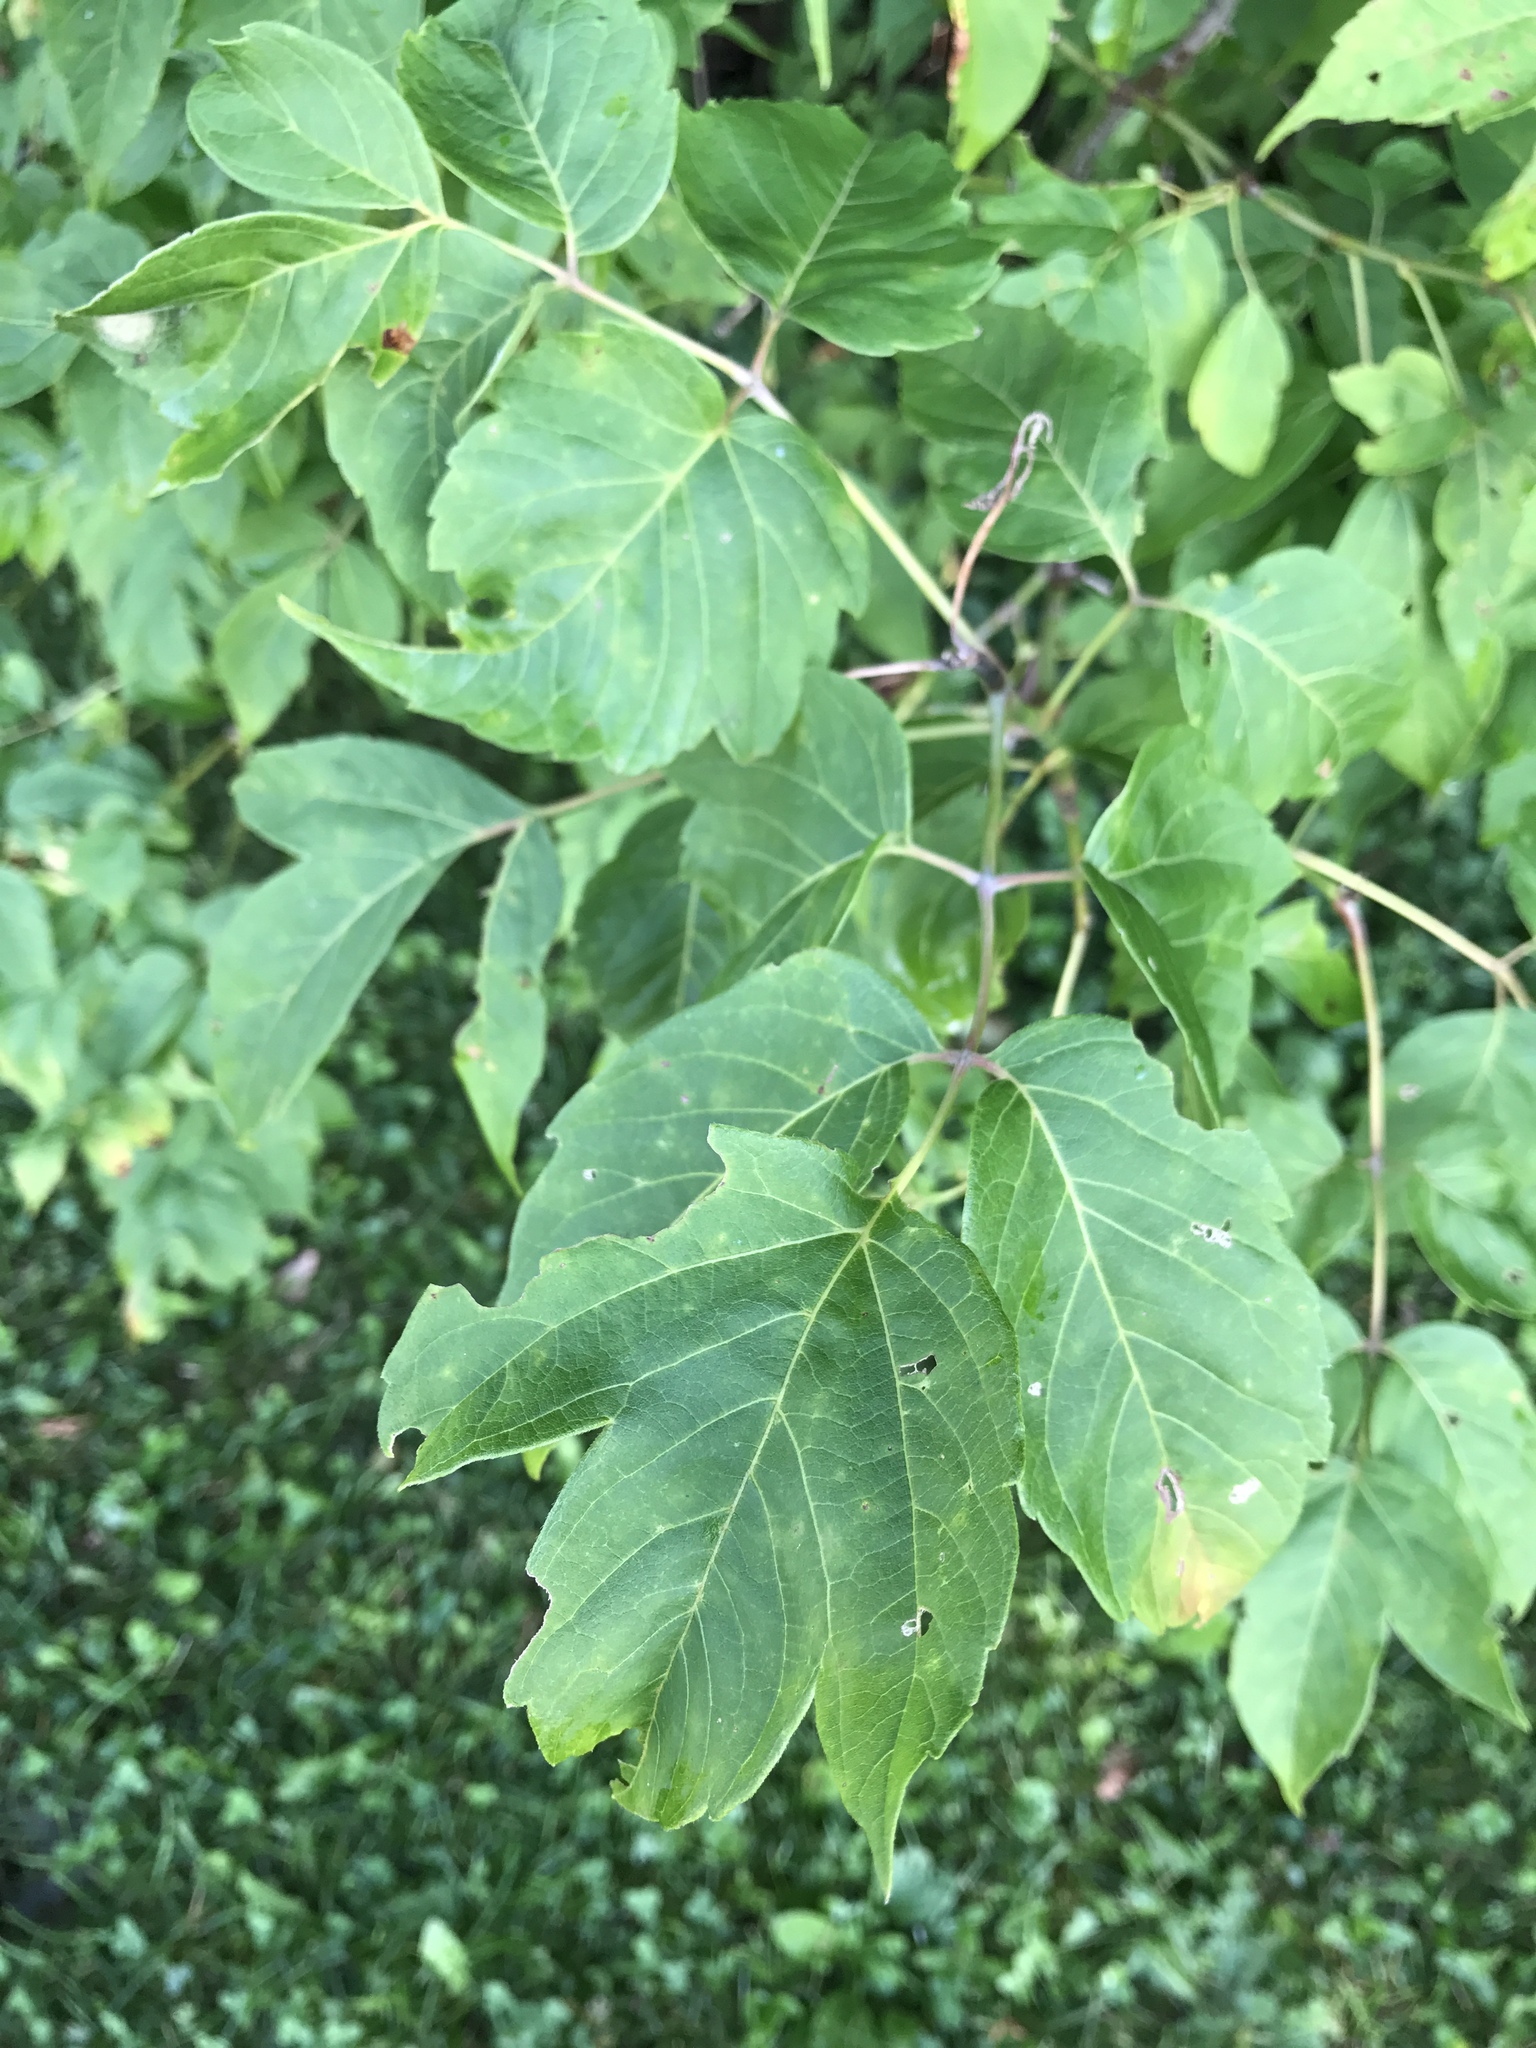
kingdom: Plantae
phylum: Tracheophyta
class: Magnoliopsida
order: Sapindales
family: Sapindaceae
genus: Acer
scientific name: Acer negundo
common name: Ashleaf maple
